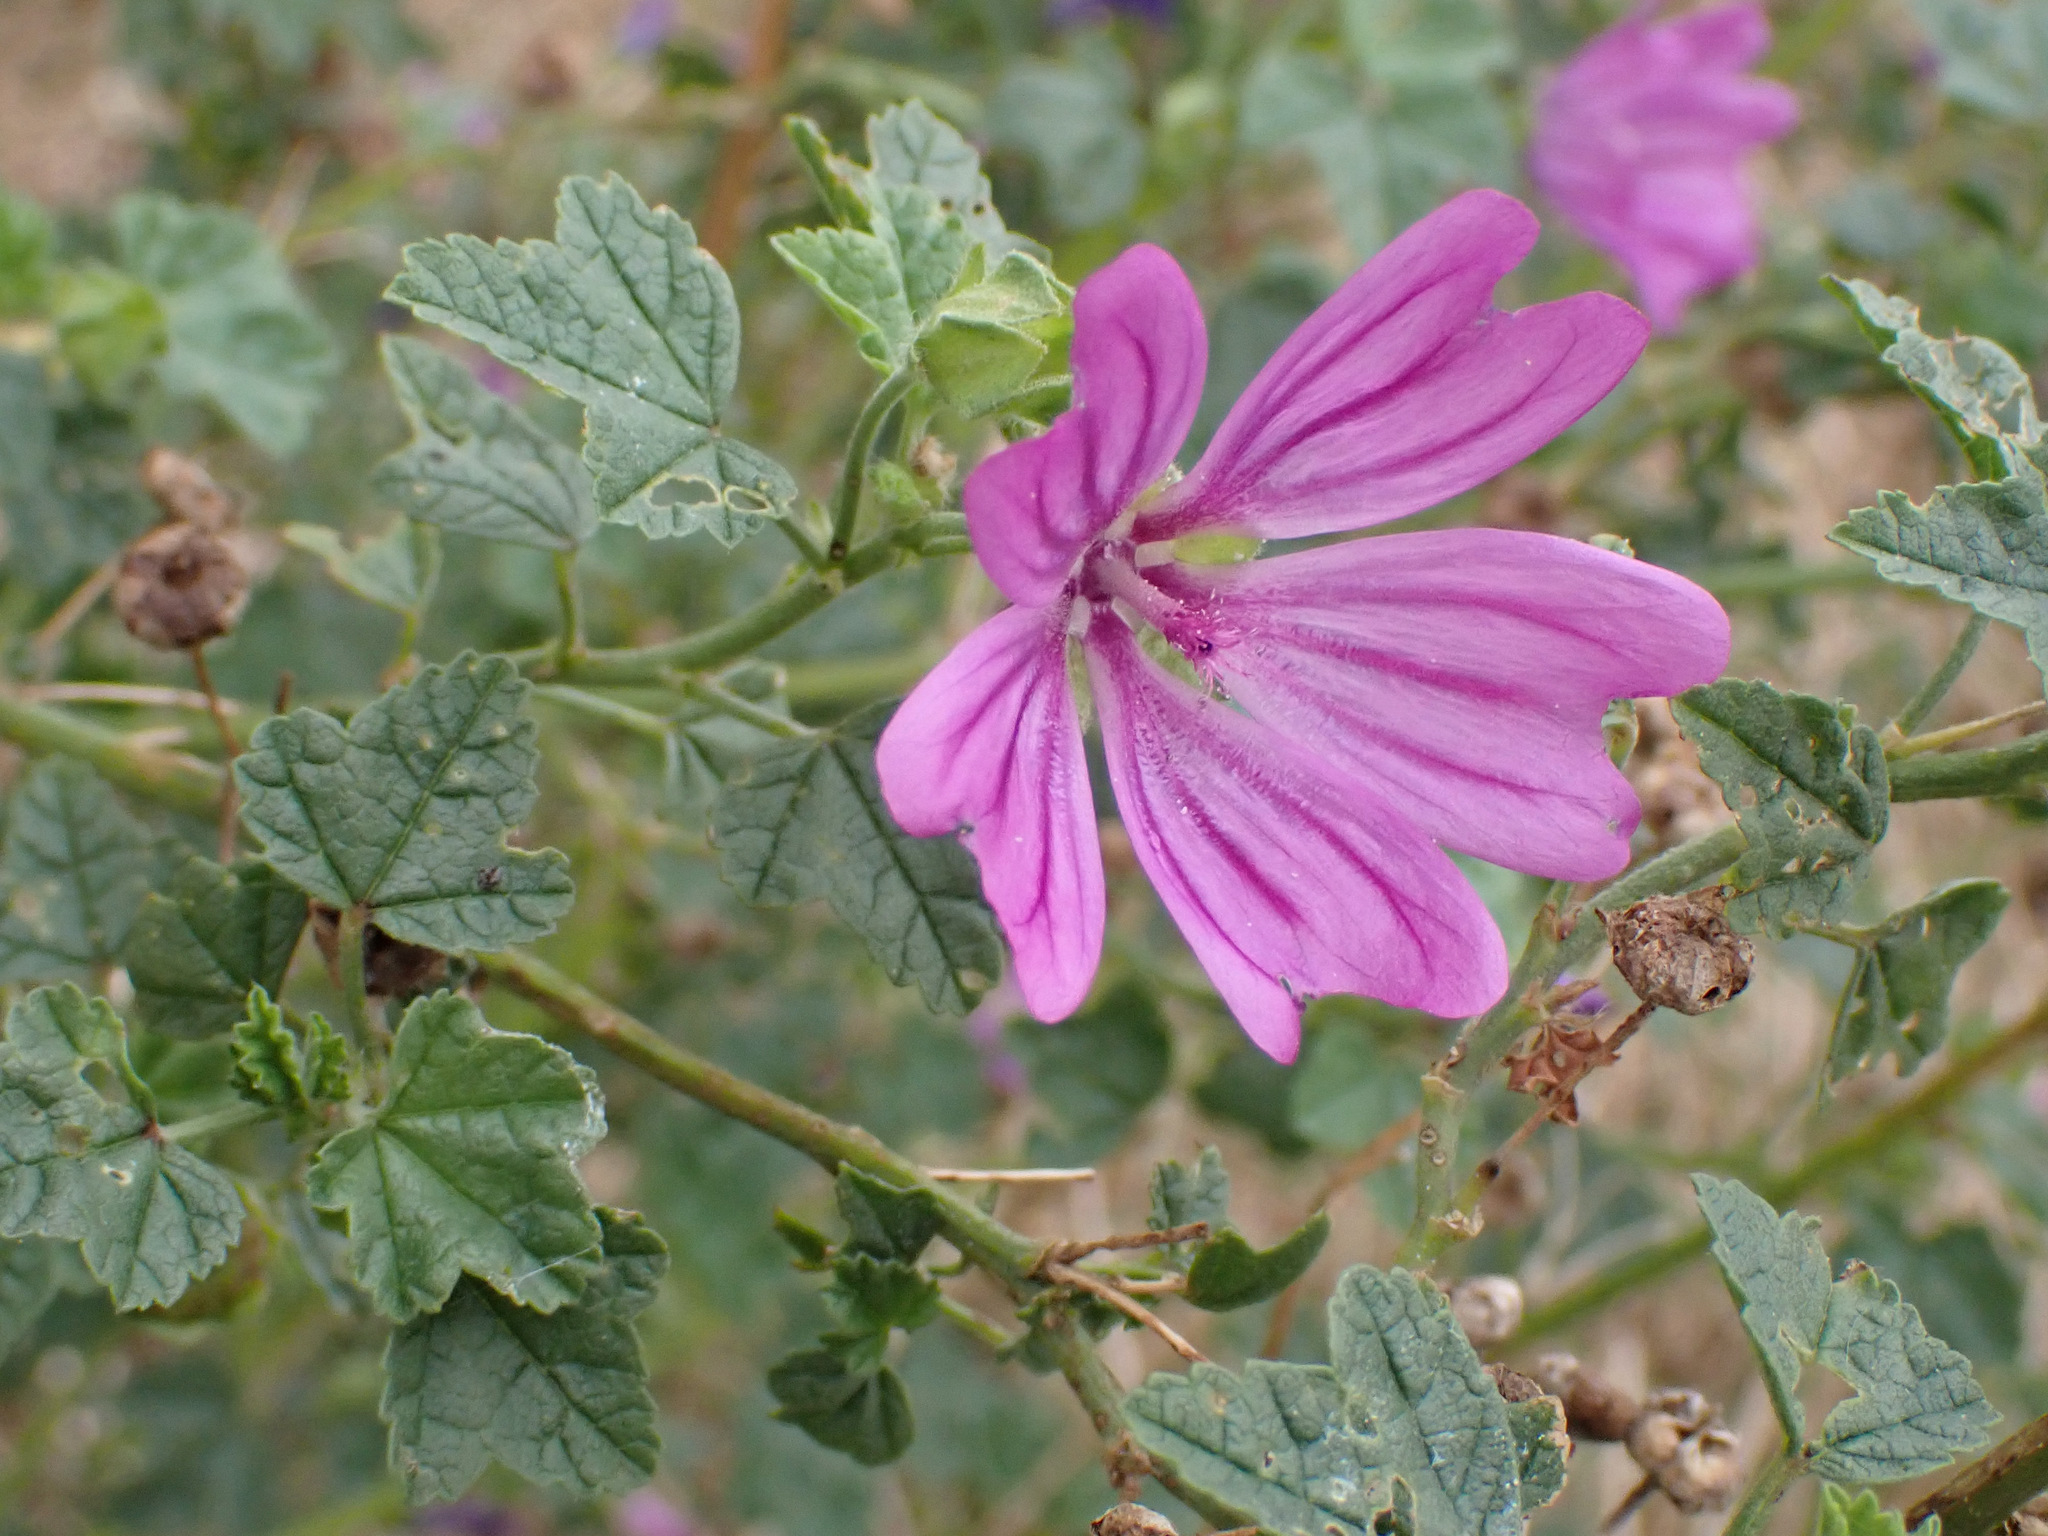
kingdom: Plantae
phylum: Tracheophyta
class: Magnoliopsida
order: Malvales
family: Malvaceae
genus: Malva
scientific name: Malva sylvestris
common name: Common mallow
